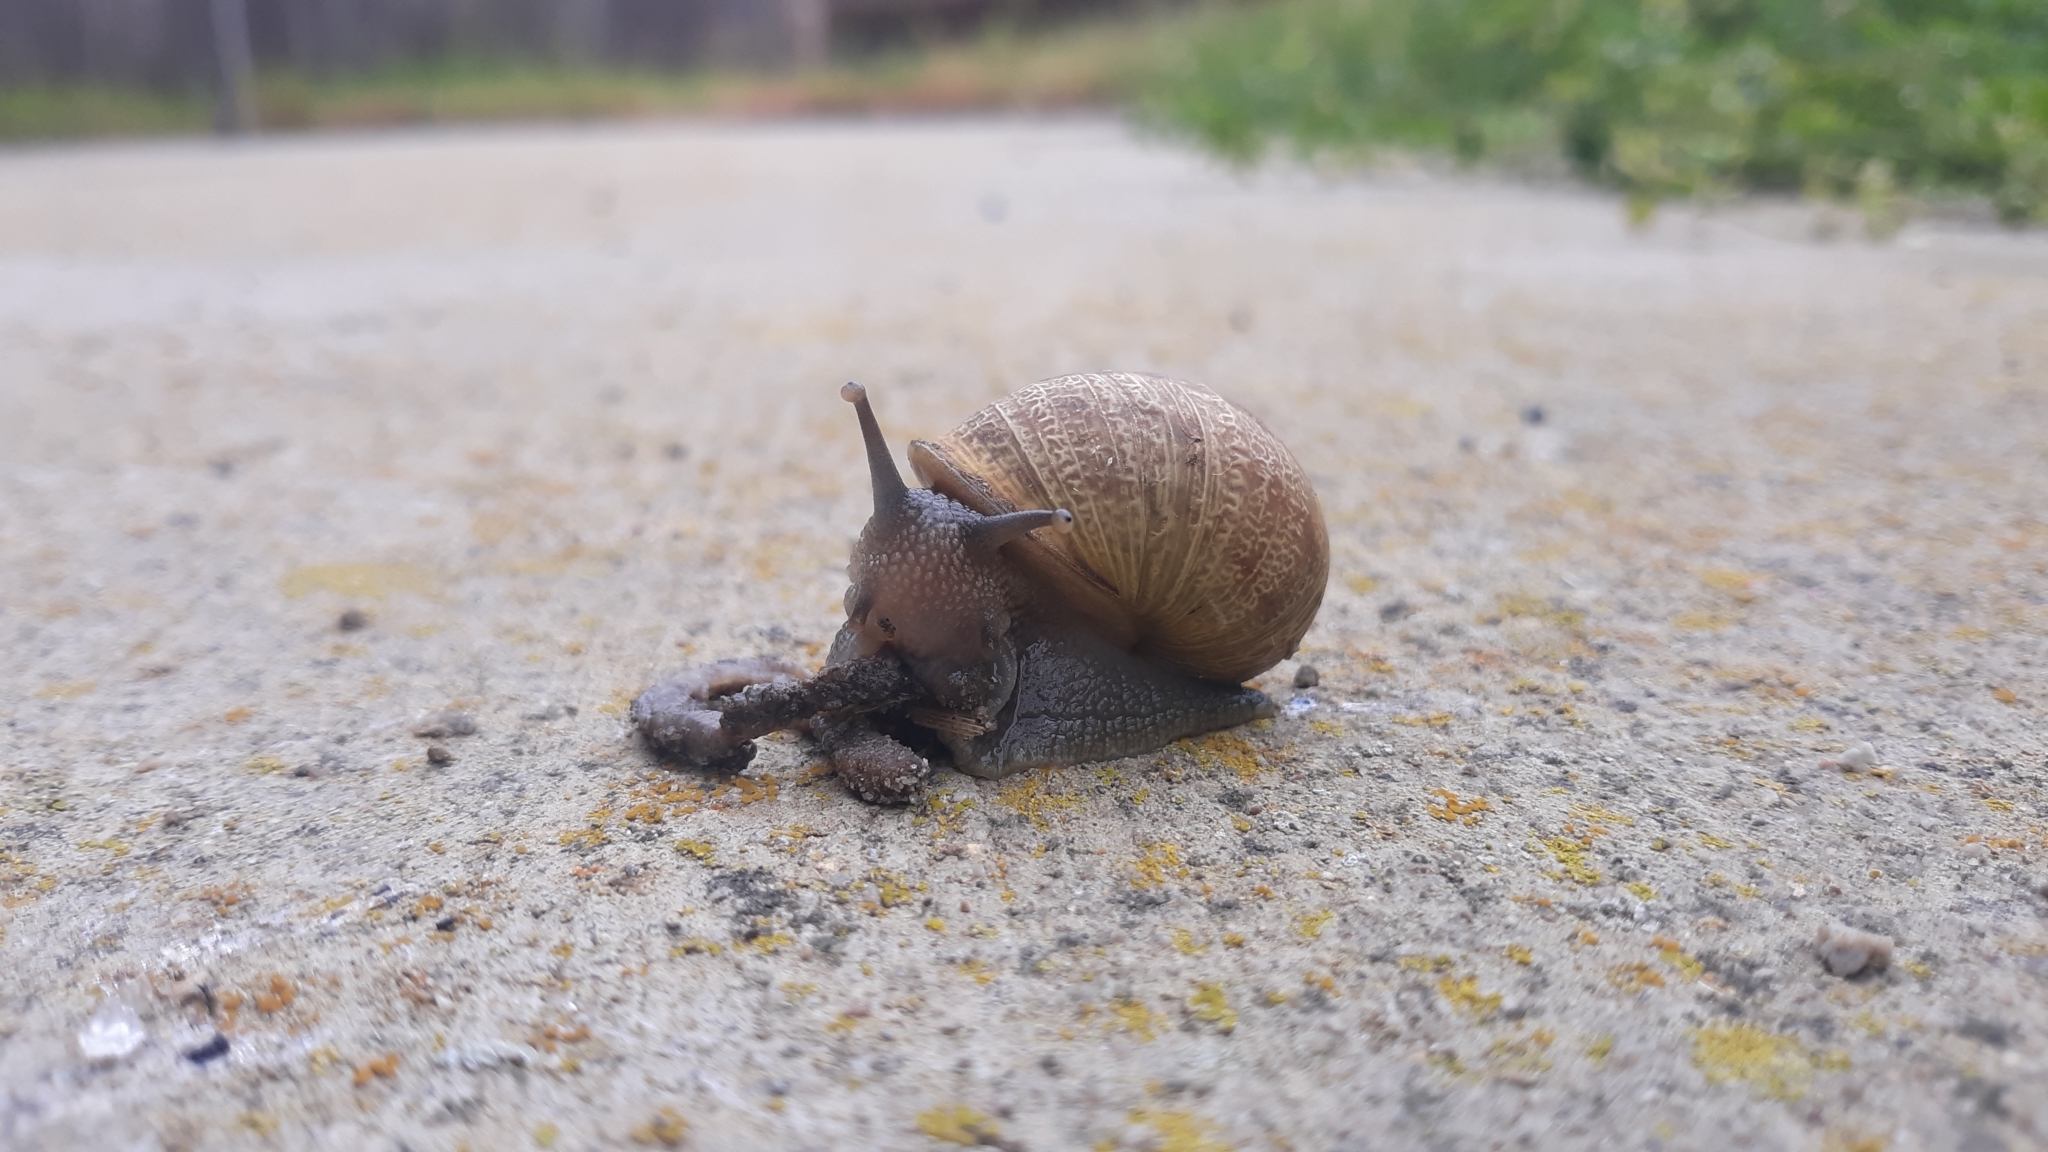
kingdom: Animalia
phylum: Mollusca
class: Gastropoda
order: Stylommatophora
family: Helicidae
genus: Cornu
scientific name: Cornu aspersum
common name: Brown garden snail
